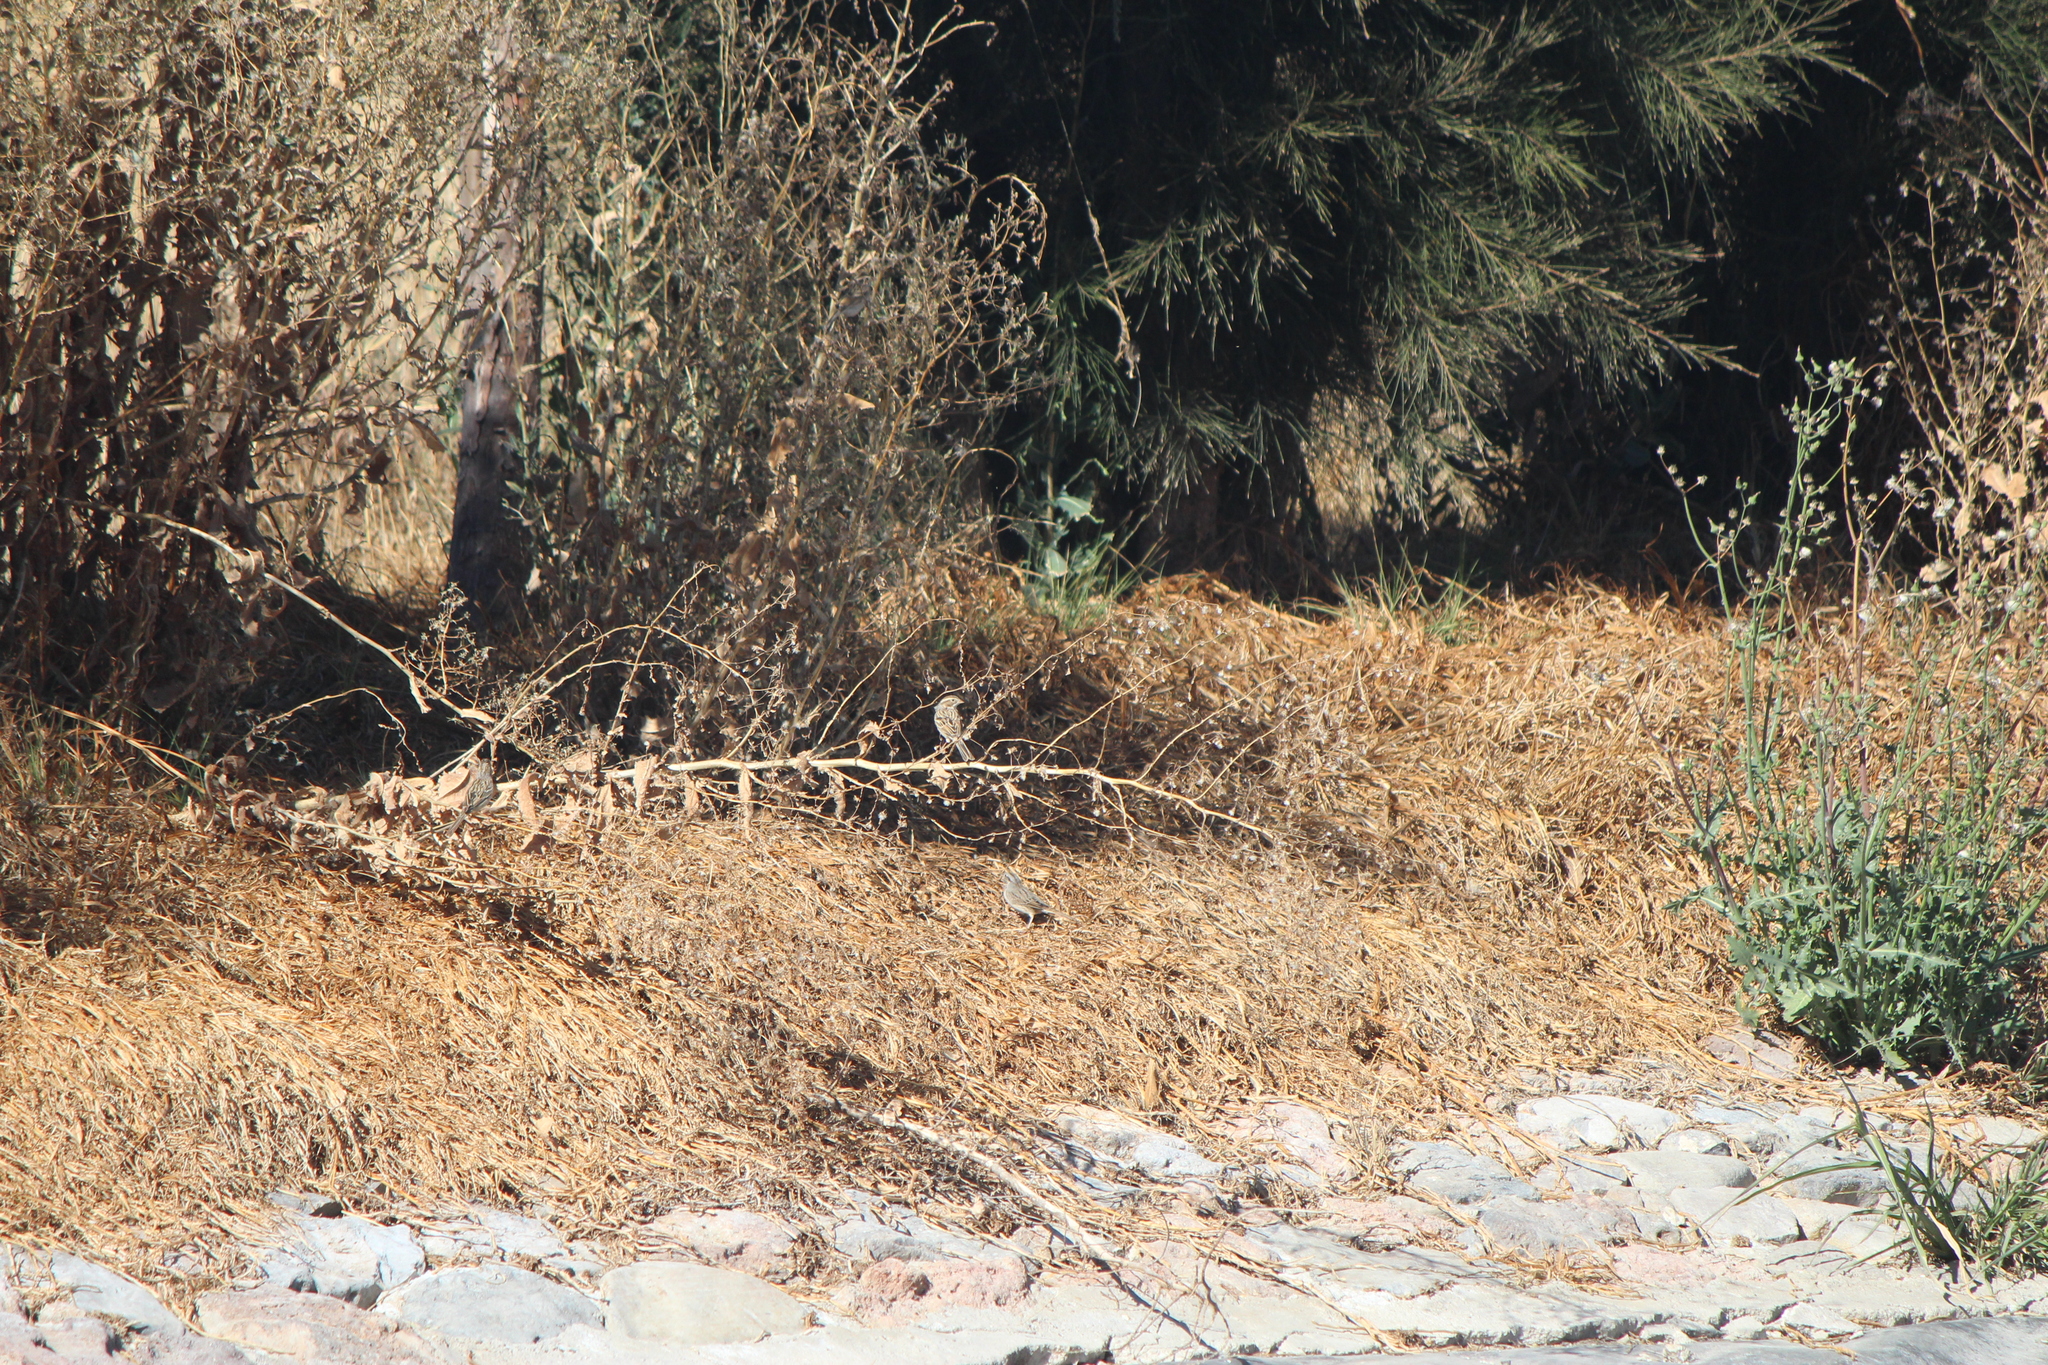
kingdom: Animalia
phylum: Chordata
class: Aves
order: Passeriformes
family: Passerellidae
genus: Spizella
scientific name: Spizella pallida
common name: Clay-colored sparrow
